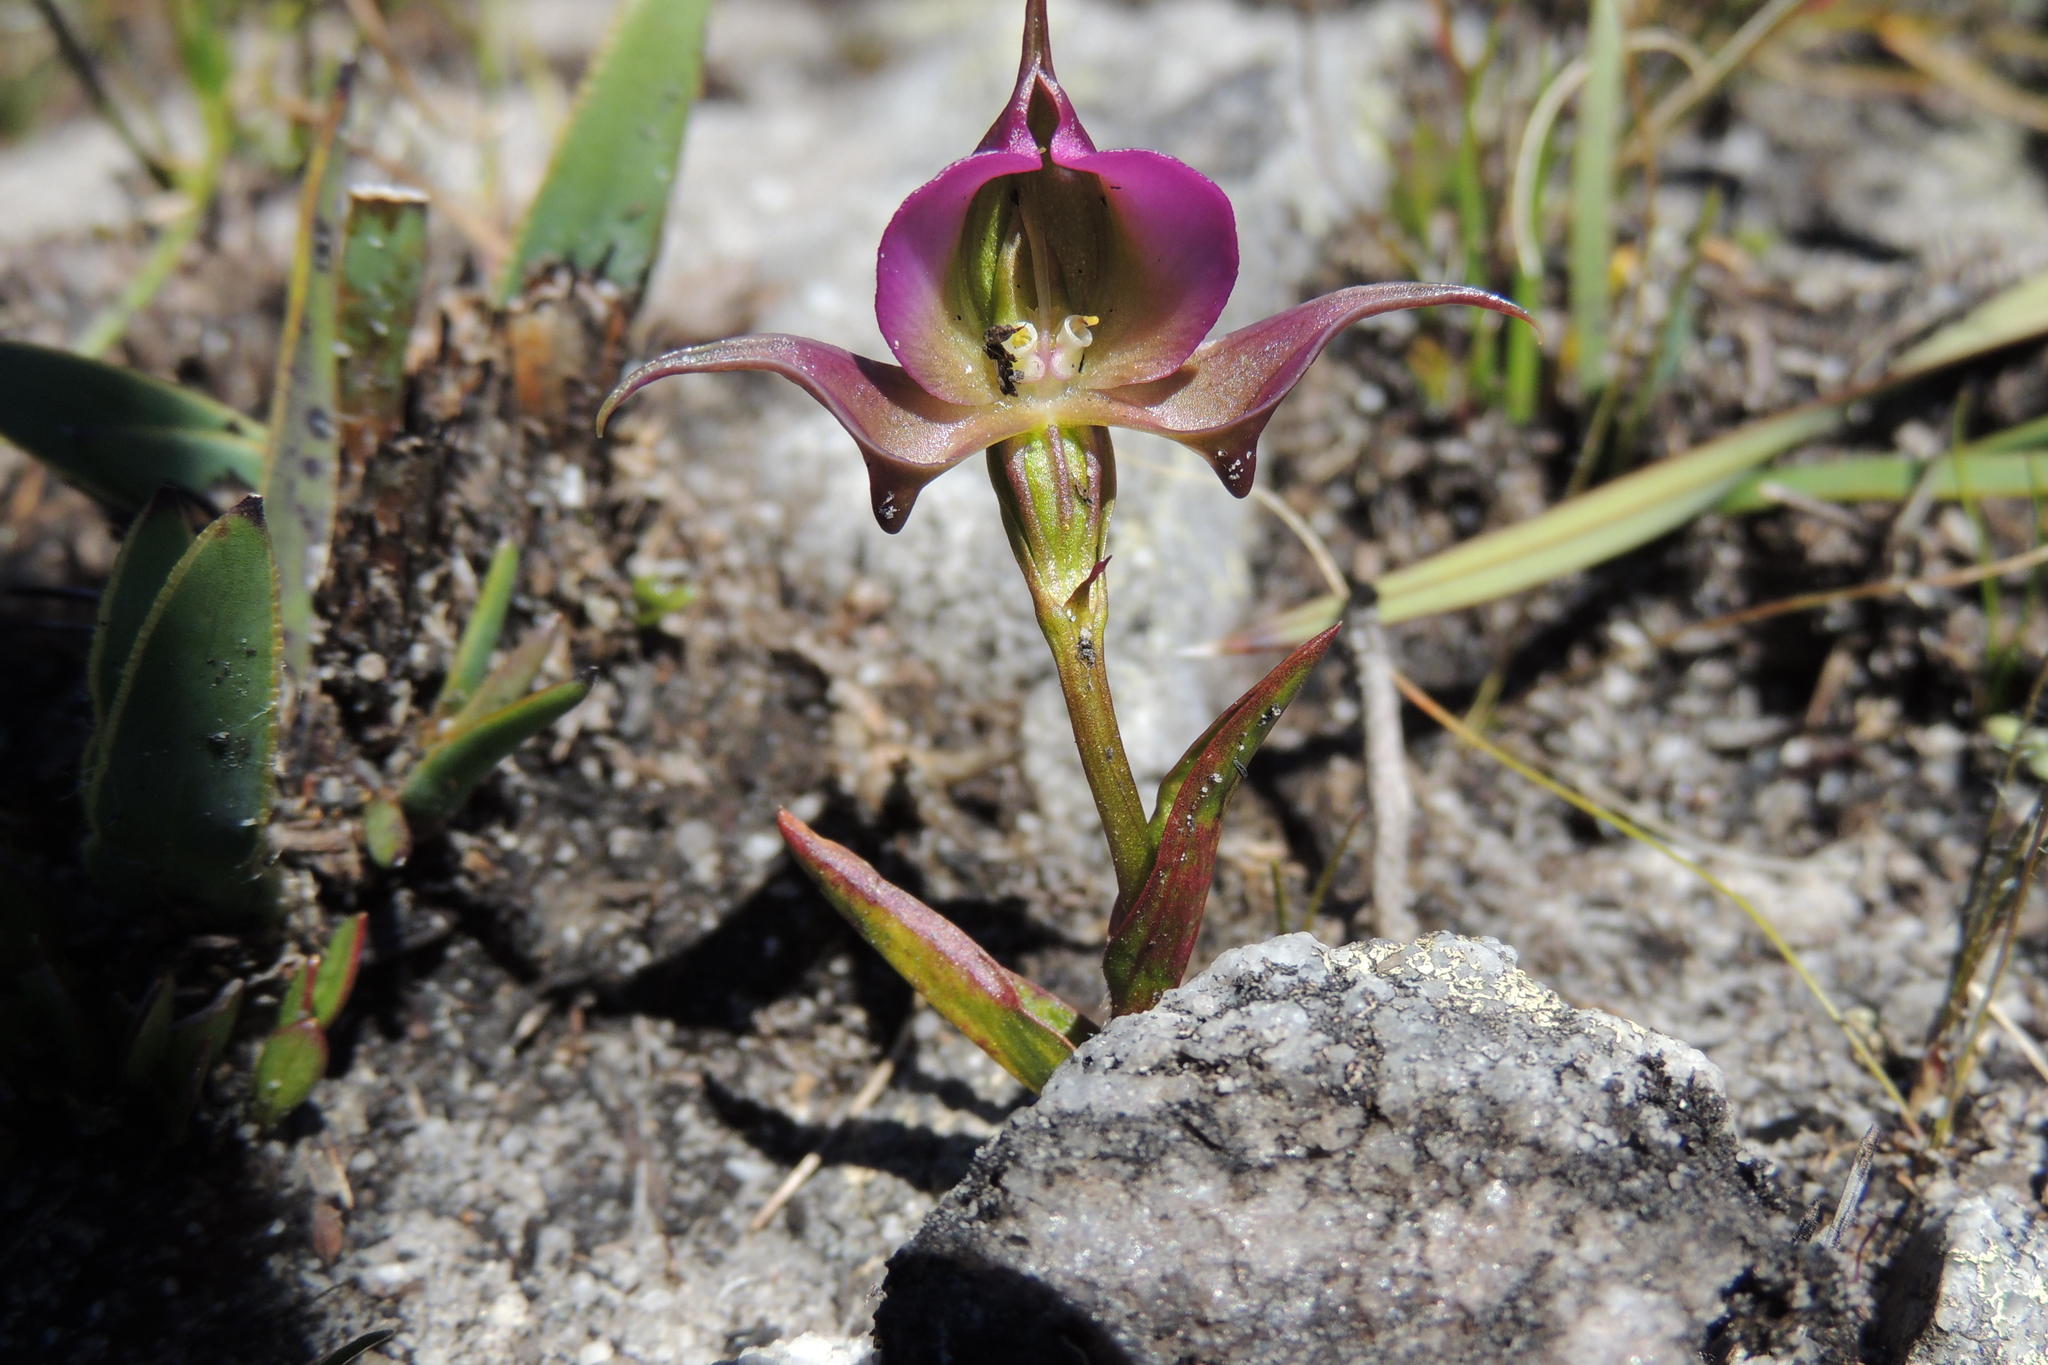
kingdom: Plantae
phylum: Tracheophyta
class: Liliopsida
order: Asparagales
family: Orchidaceae
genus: Disperis
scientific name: Disperis capensis
